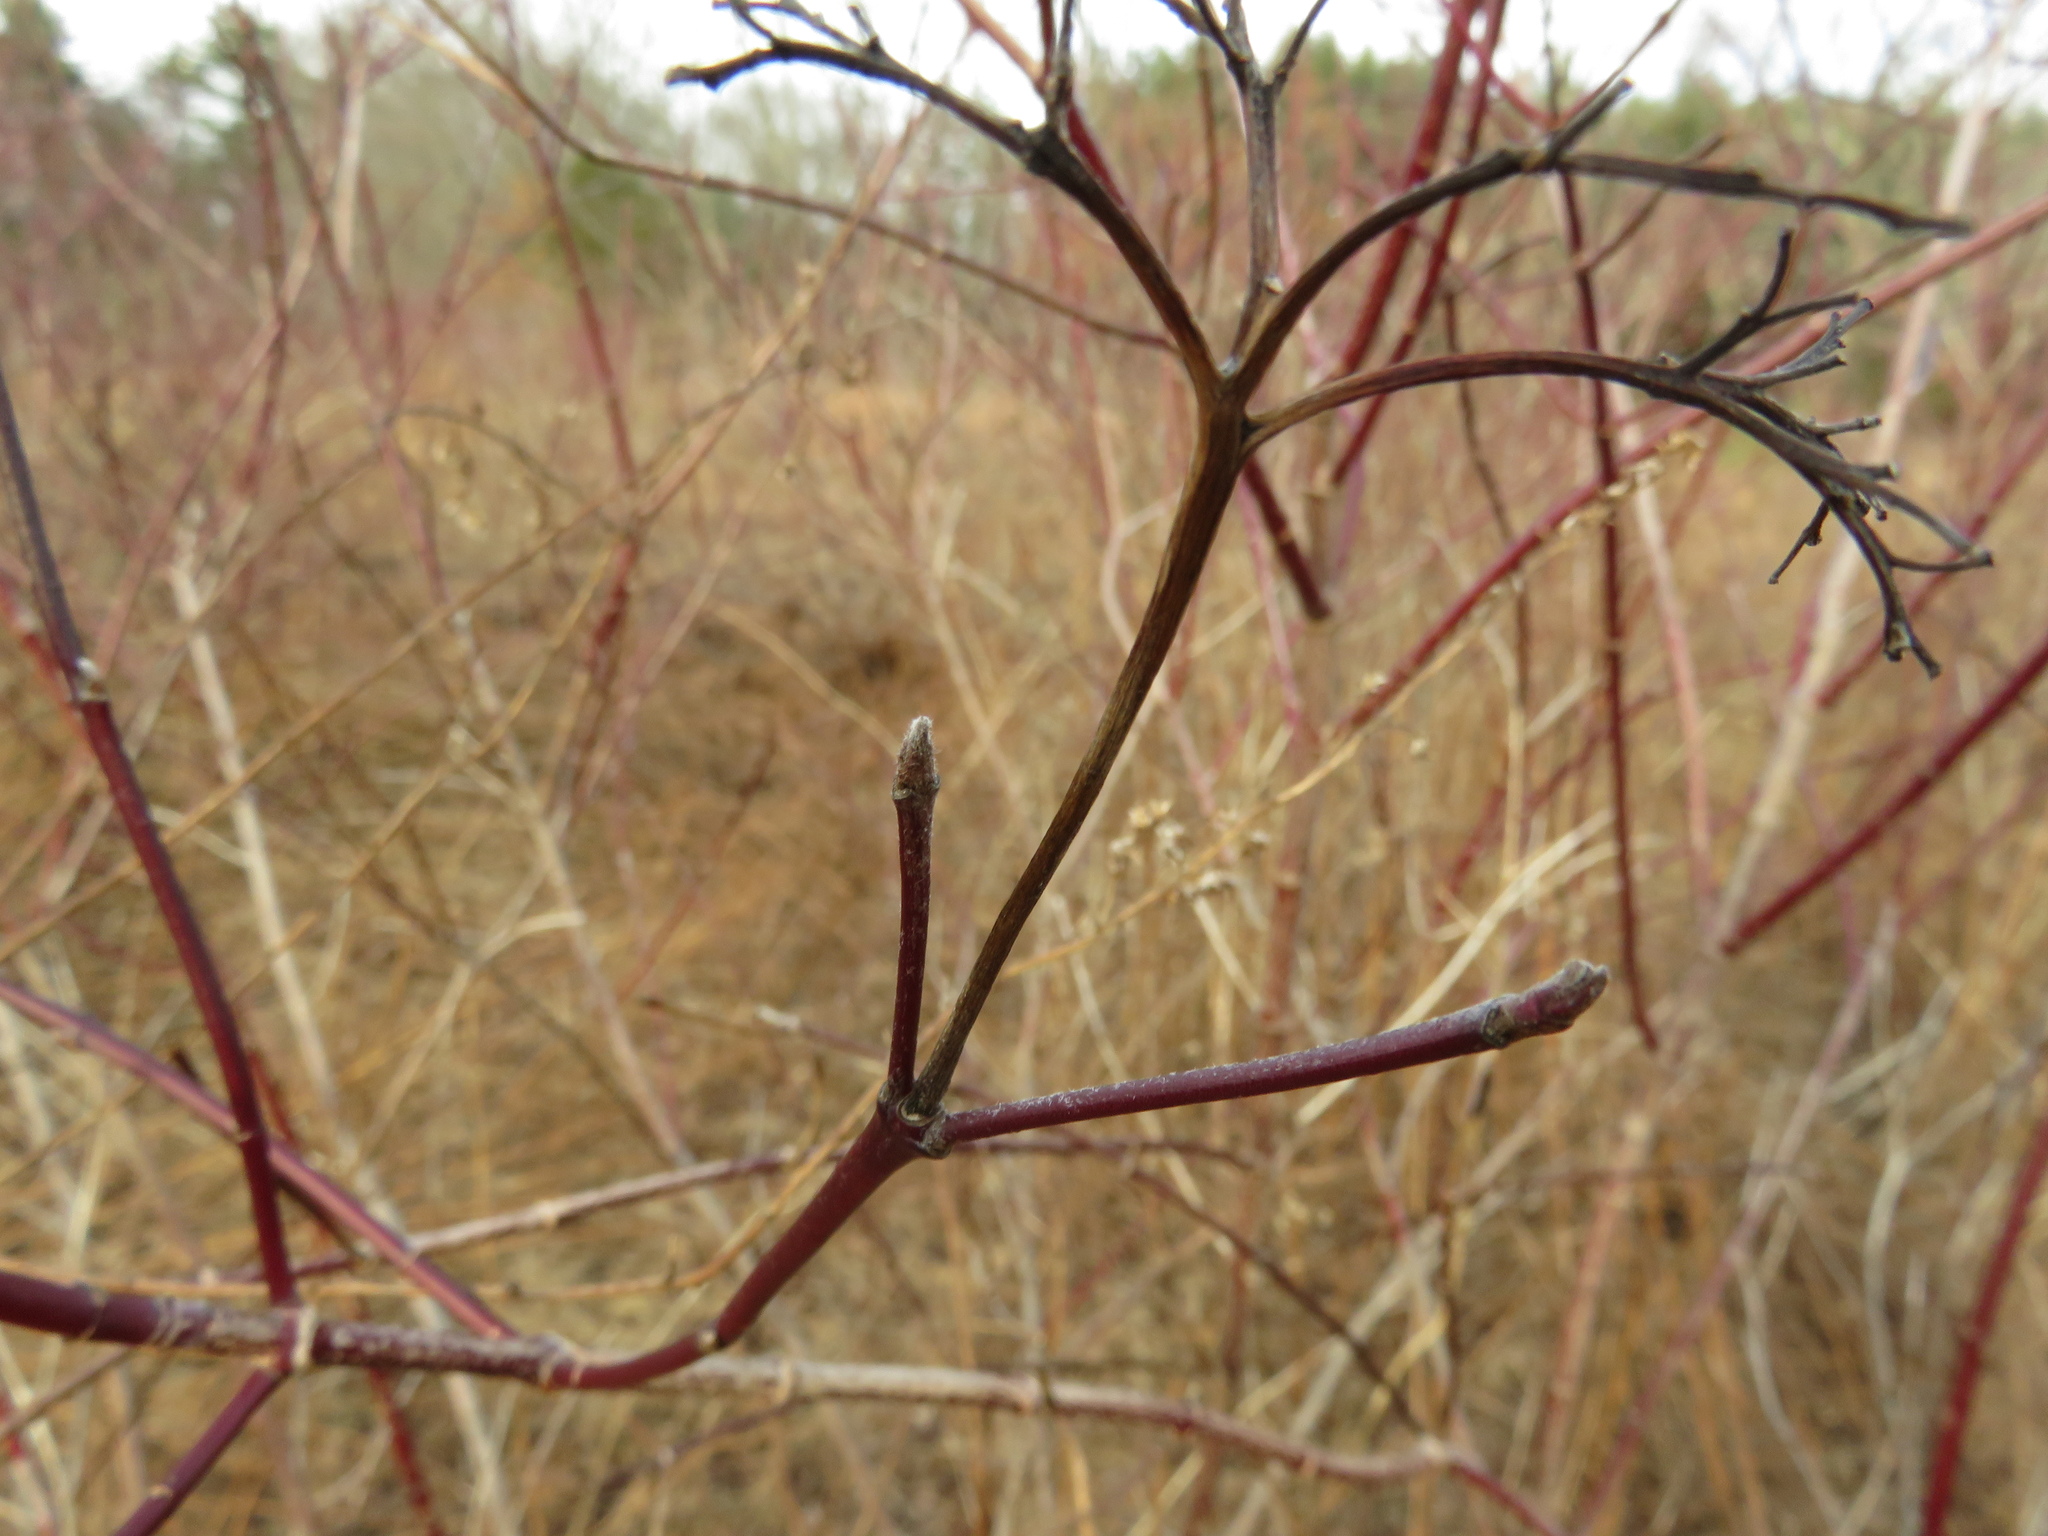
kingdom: Plantae
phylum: Tracheophyta
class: Magnoliopsida
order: Cornales
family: Cornaceae
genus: Cornus
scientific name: Cornus amomum
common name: Silky dogwood
